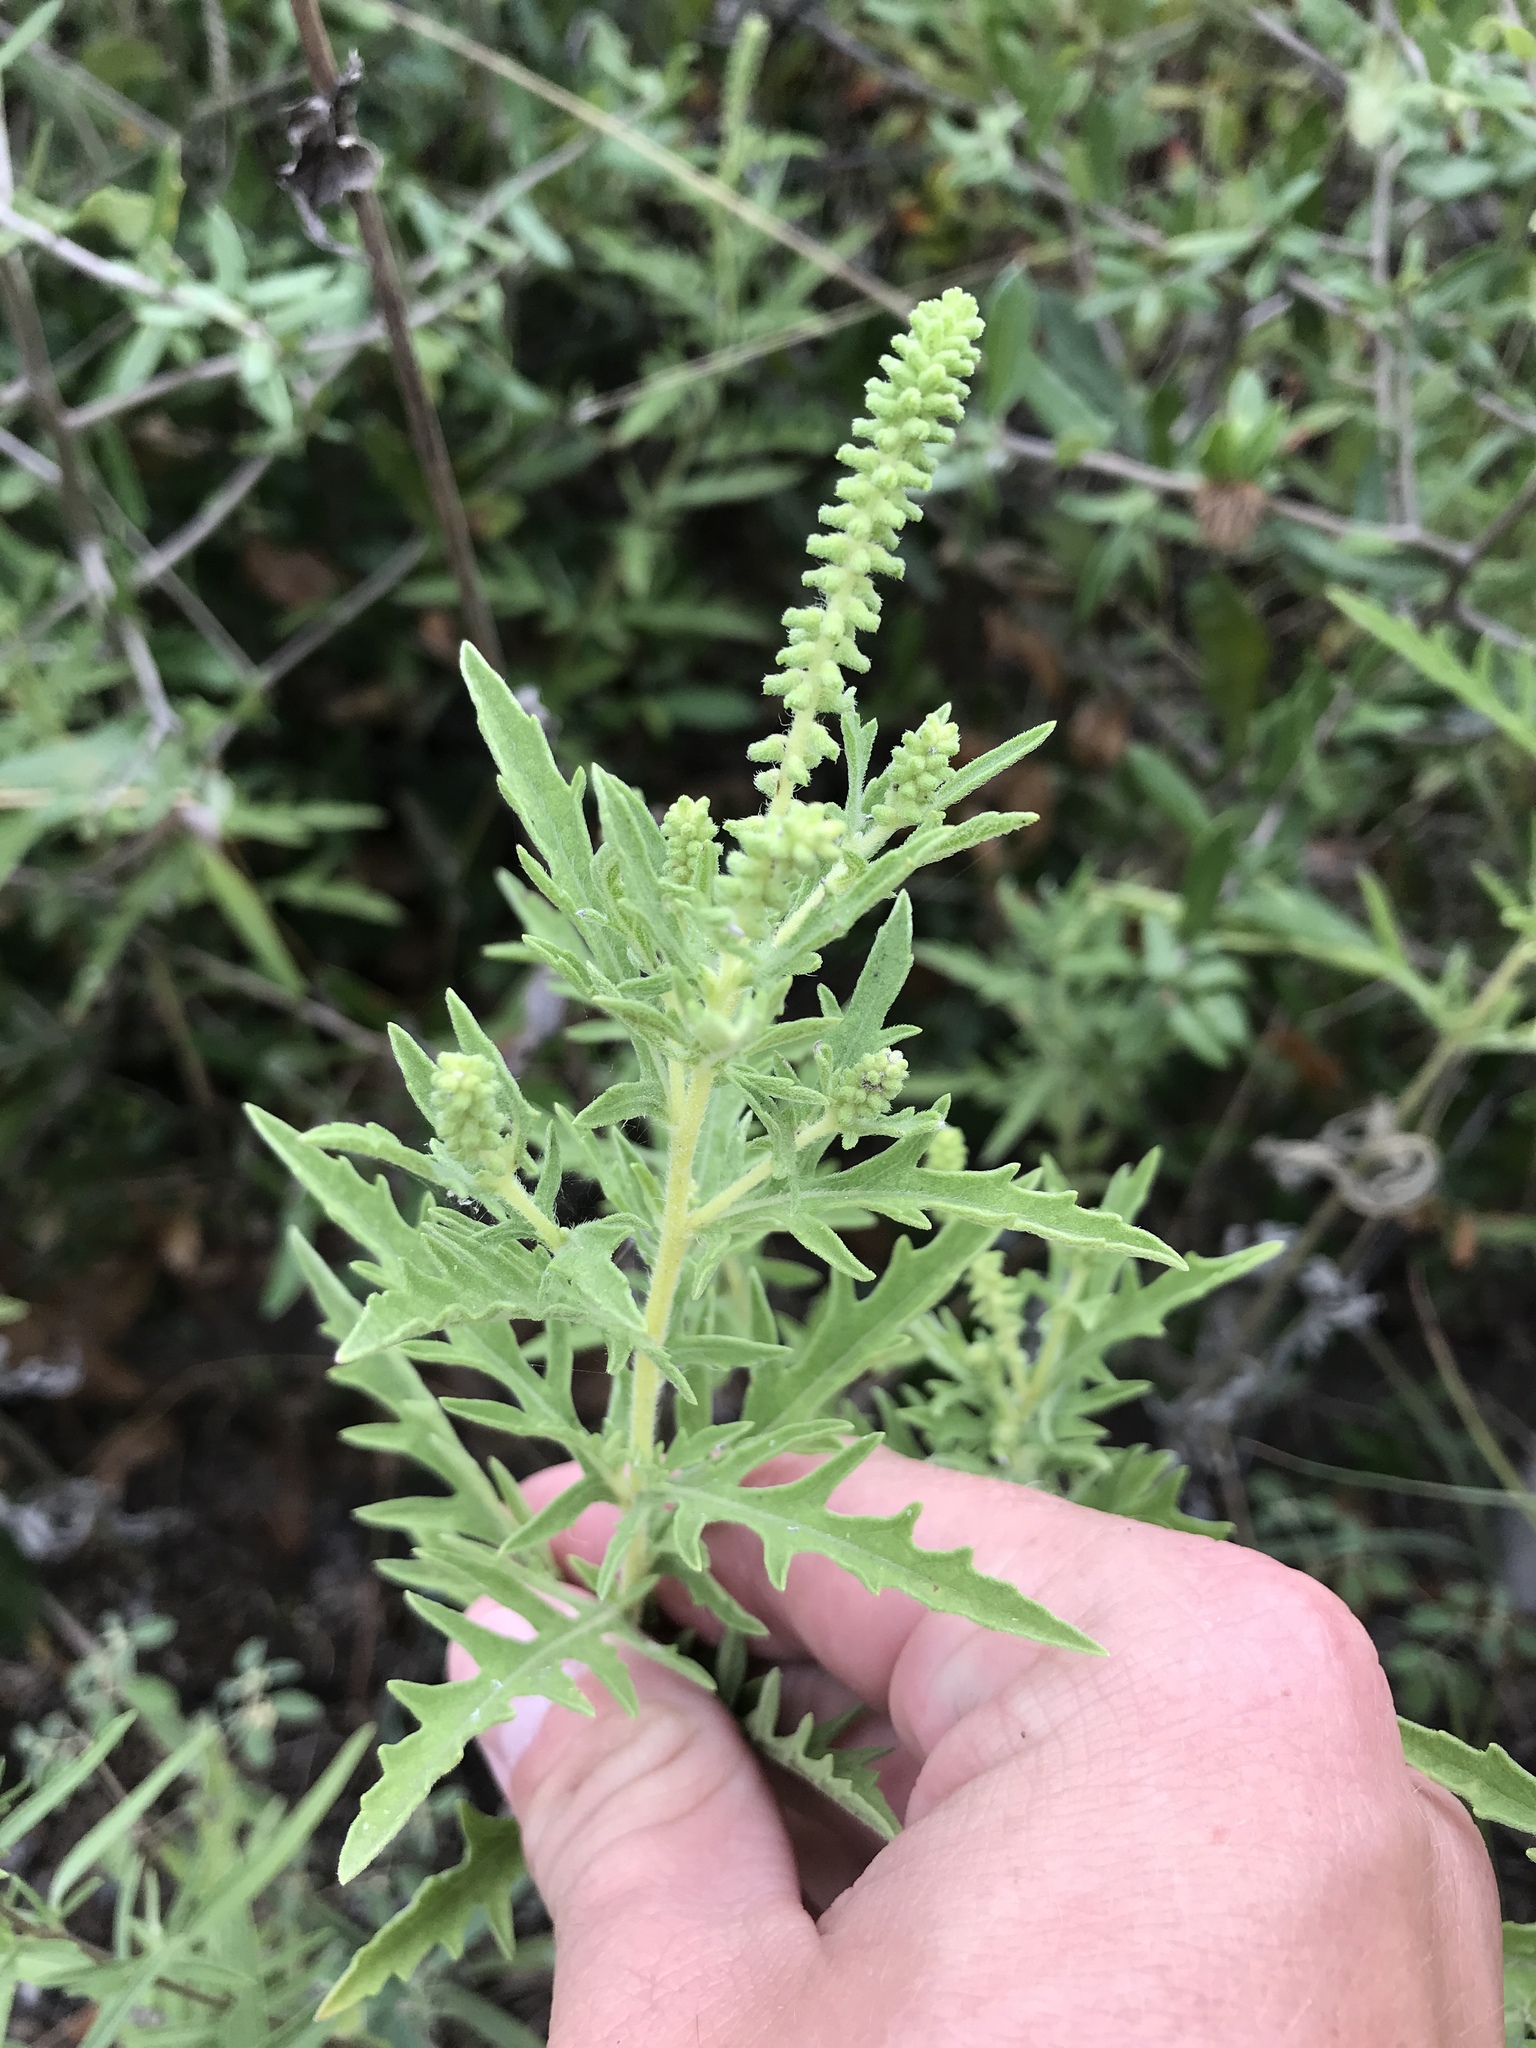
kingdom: Plantae
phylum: Tracheophyta
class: Magnoliopsida
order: Asterales
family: Asteraceae
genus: Ambrosia
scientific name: Ambrosia psilostachya
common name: Perennial ragweed
